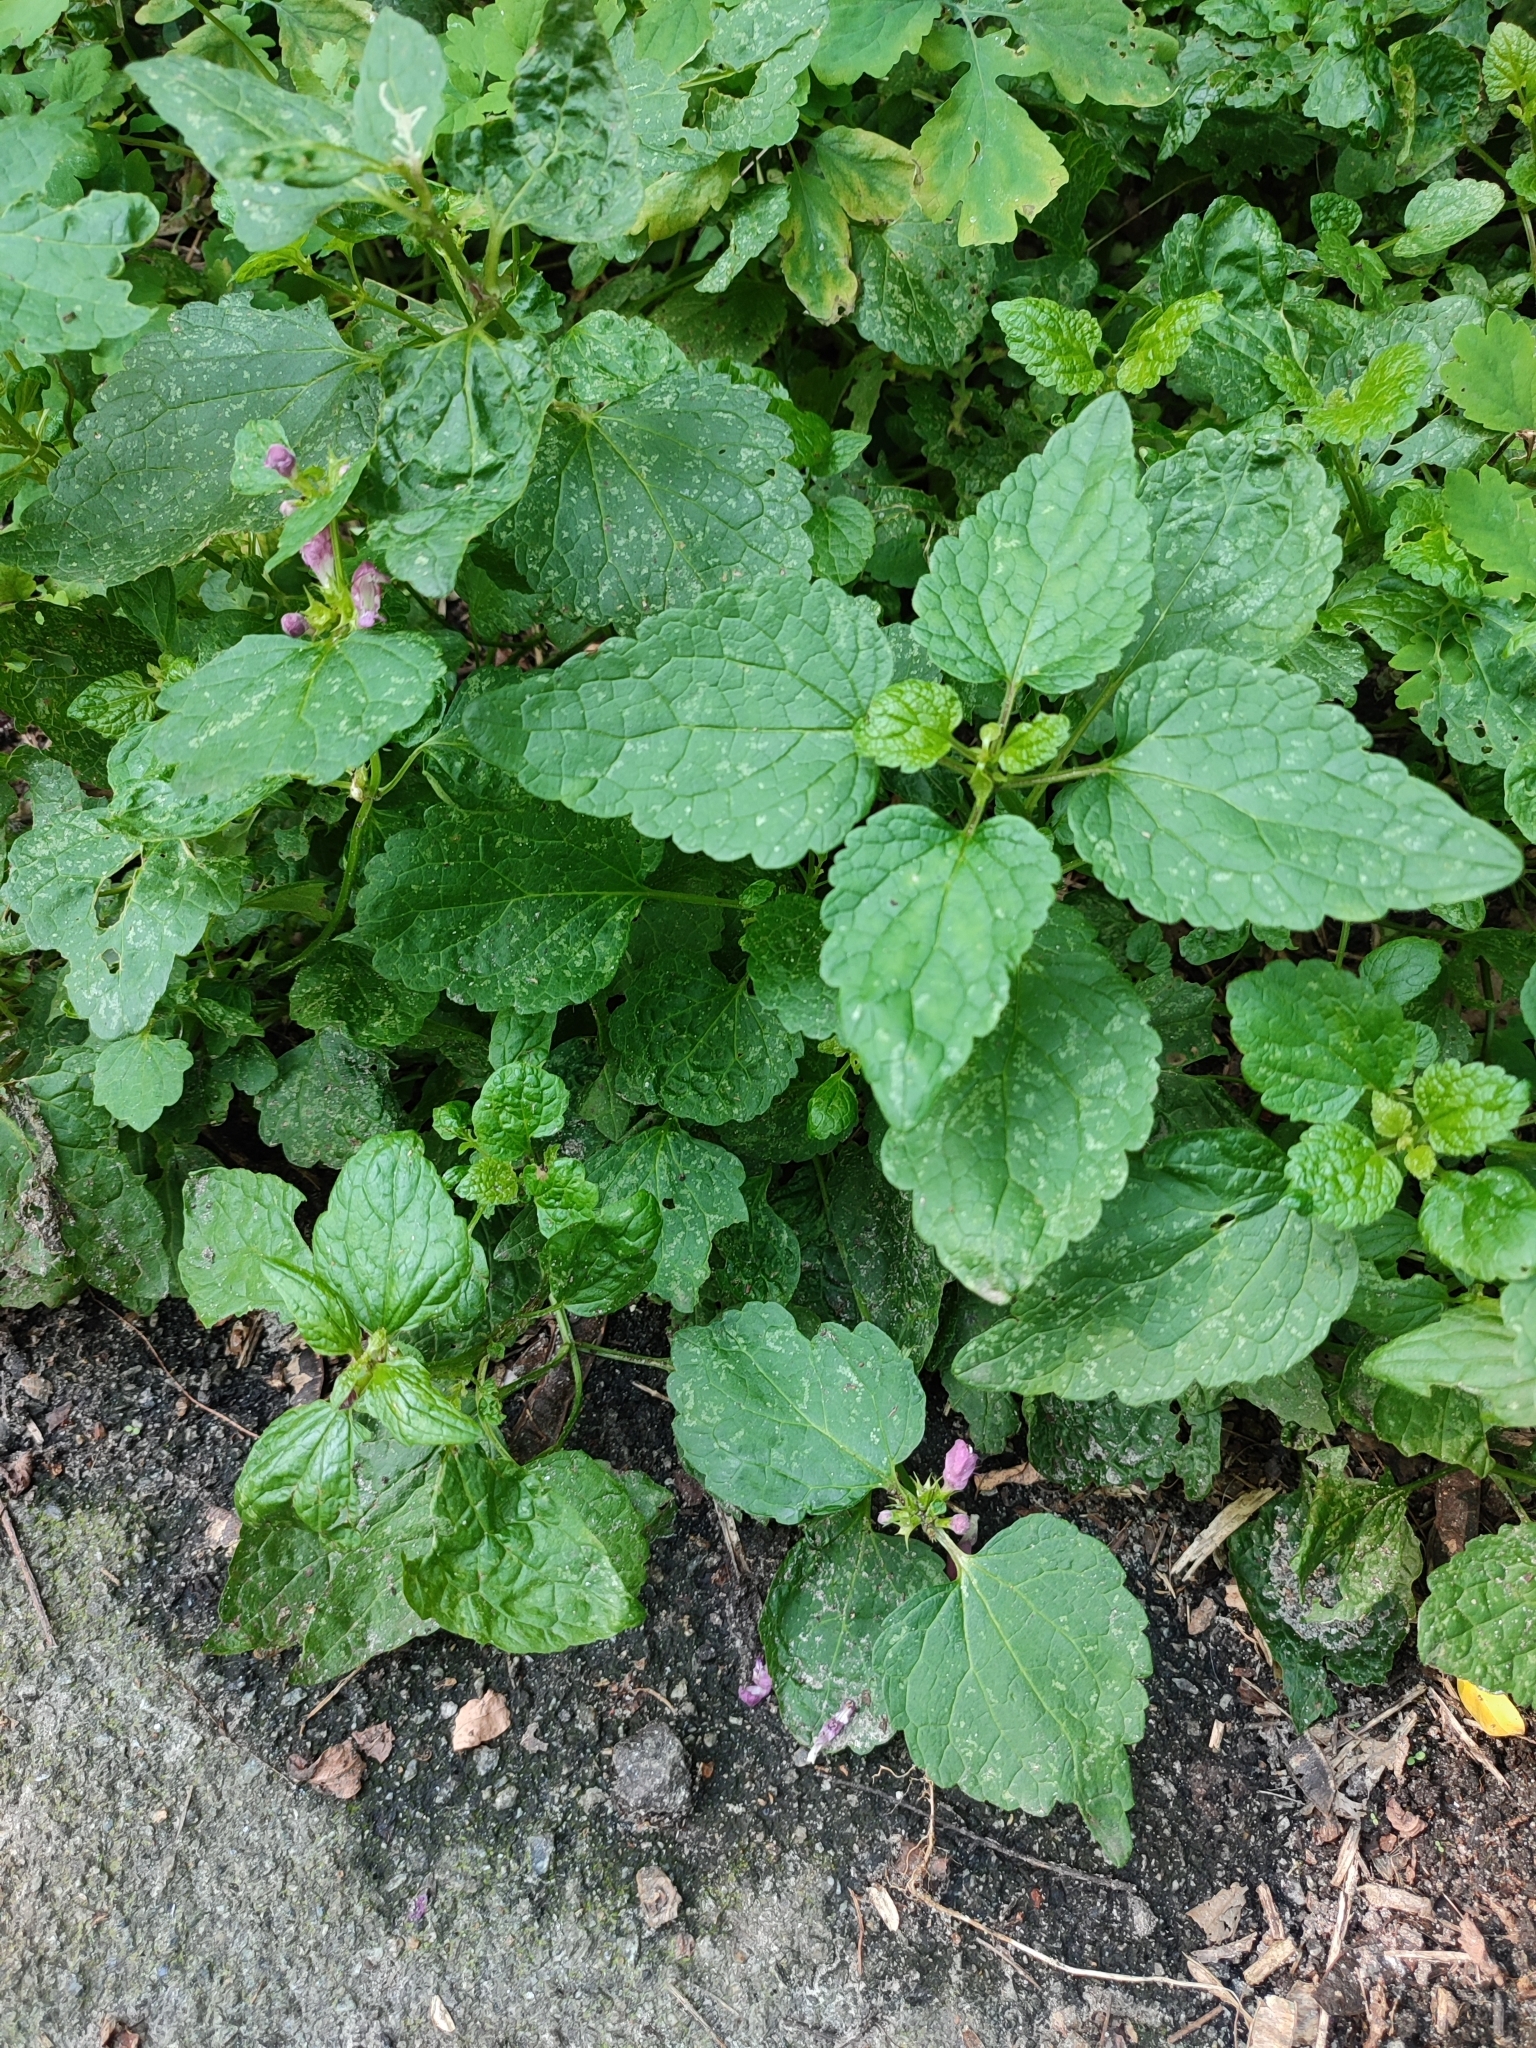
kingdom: Plantae
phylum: Tracheophyta
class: Magnoliopsida
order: Lamiales
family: Lamiaceae
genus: Lamium
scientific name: Lamium maculatum
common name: Spotted dead-nettle
